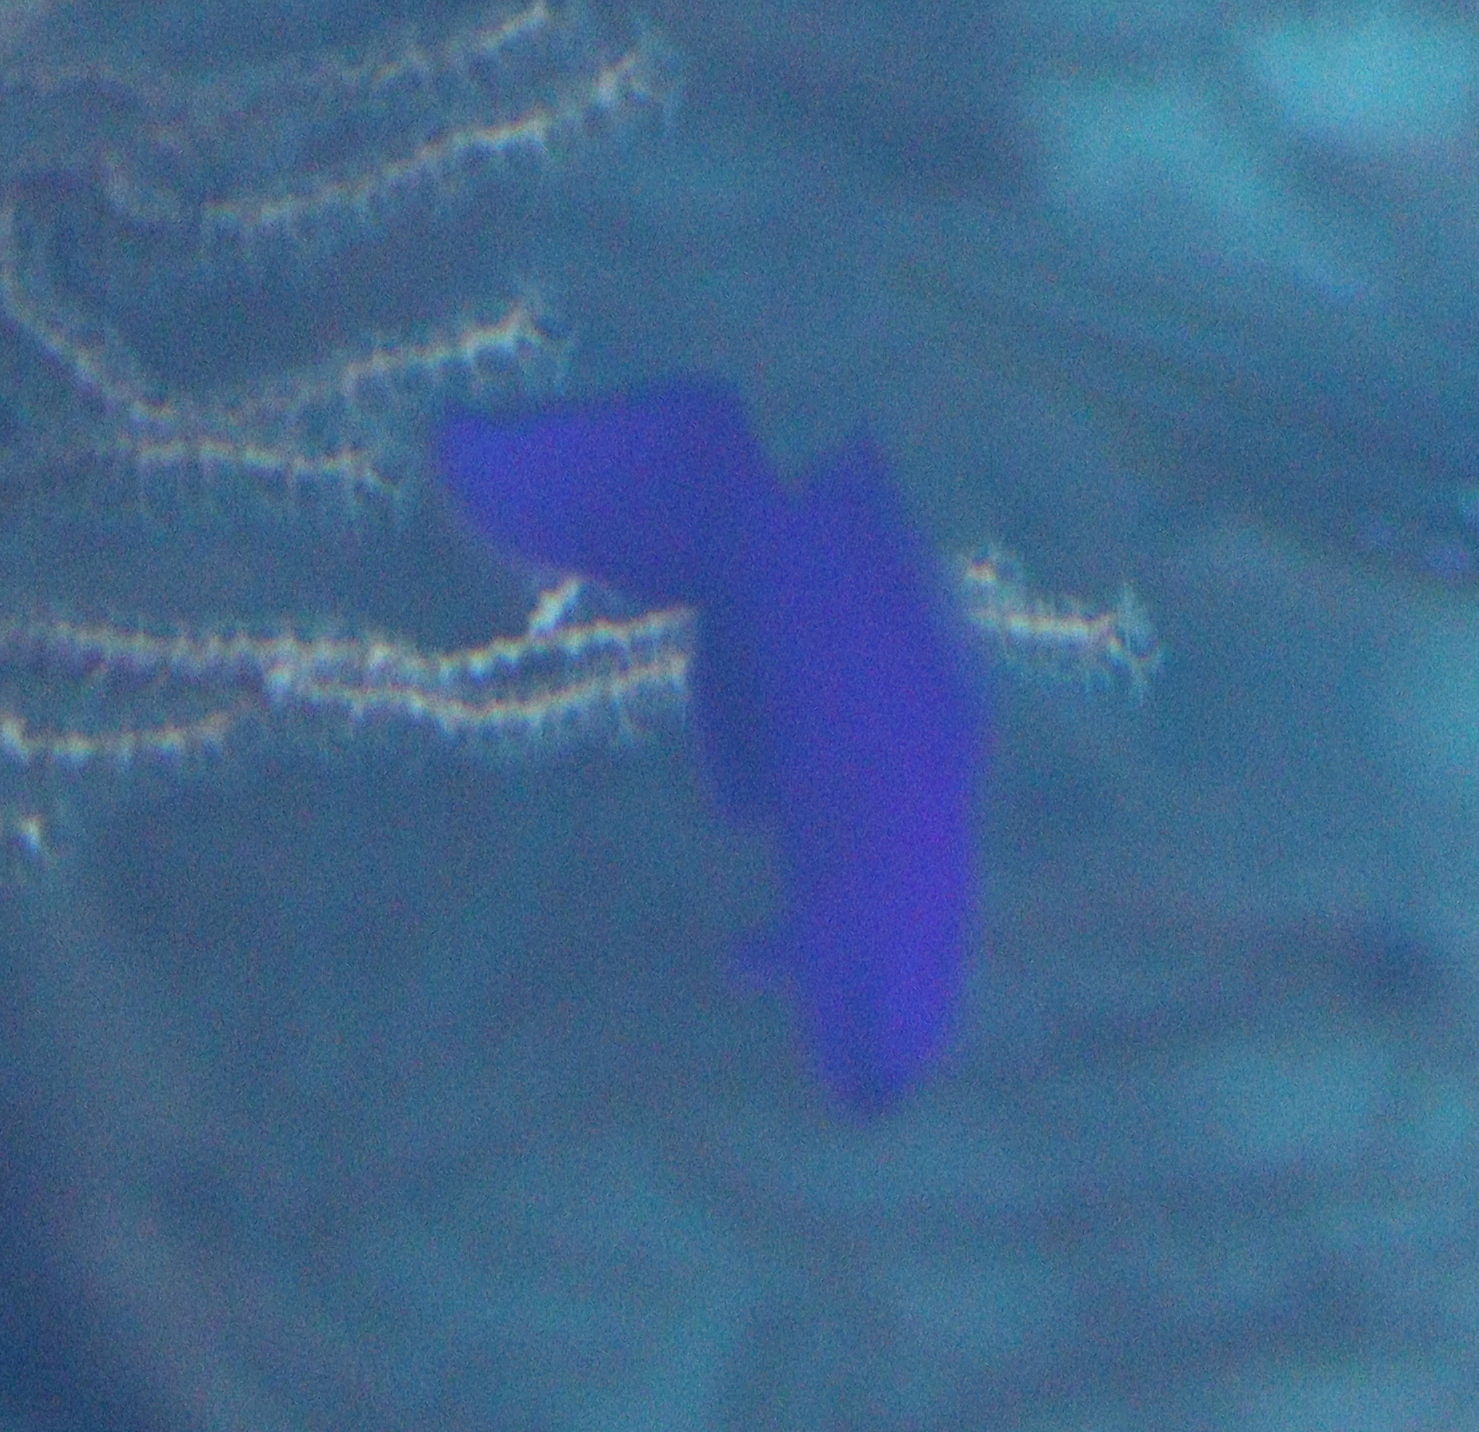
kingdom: Animalia
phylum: Chordata
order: Perciformes
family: Pseudochromidae
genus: Pseudochromis
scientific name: Pseudochromis fridmani
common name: Orchid dottyback
